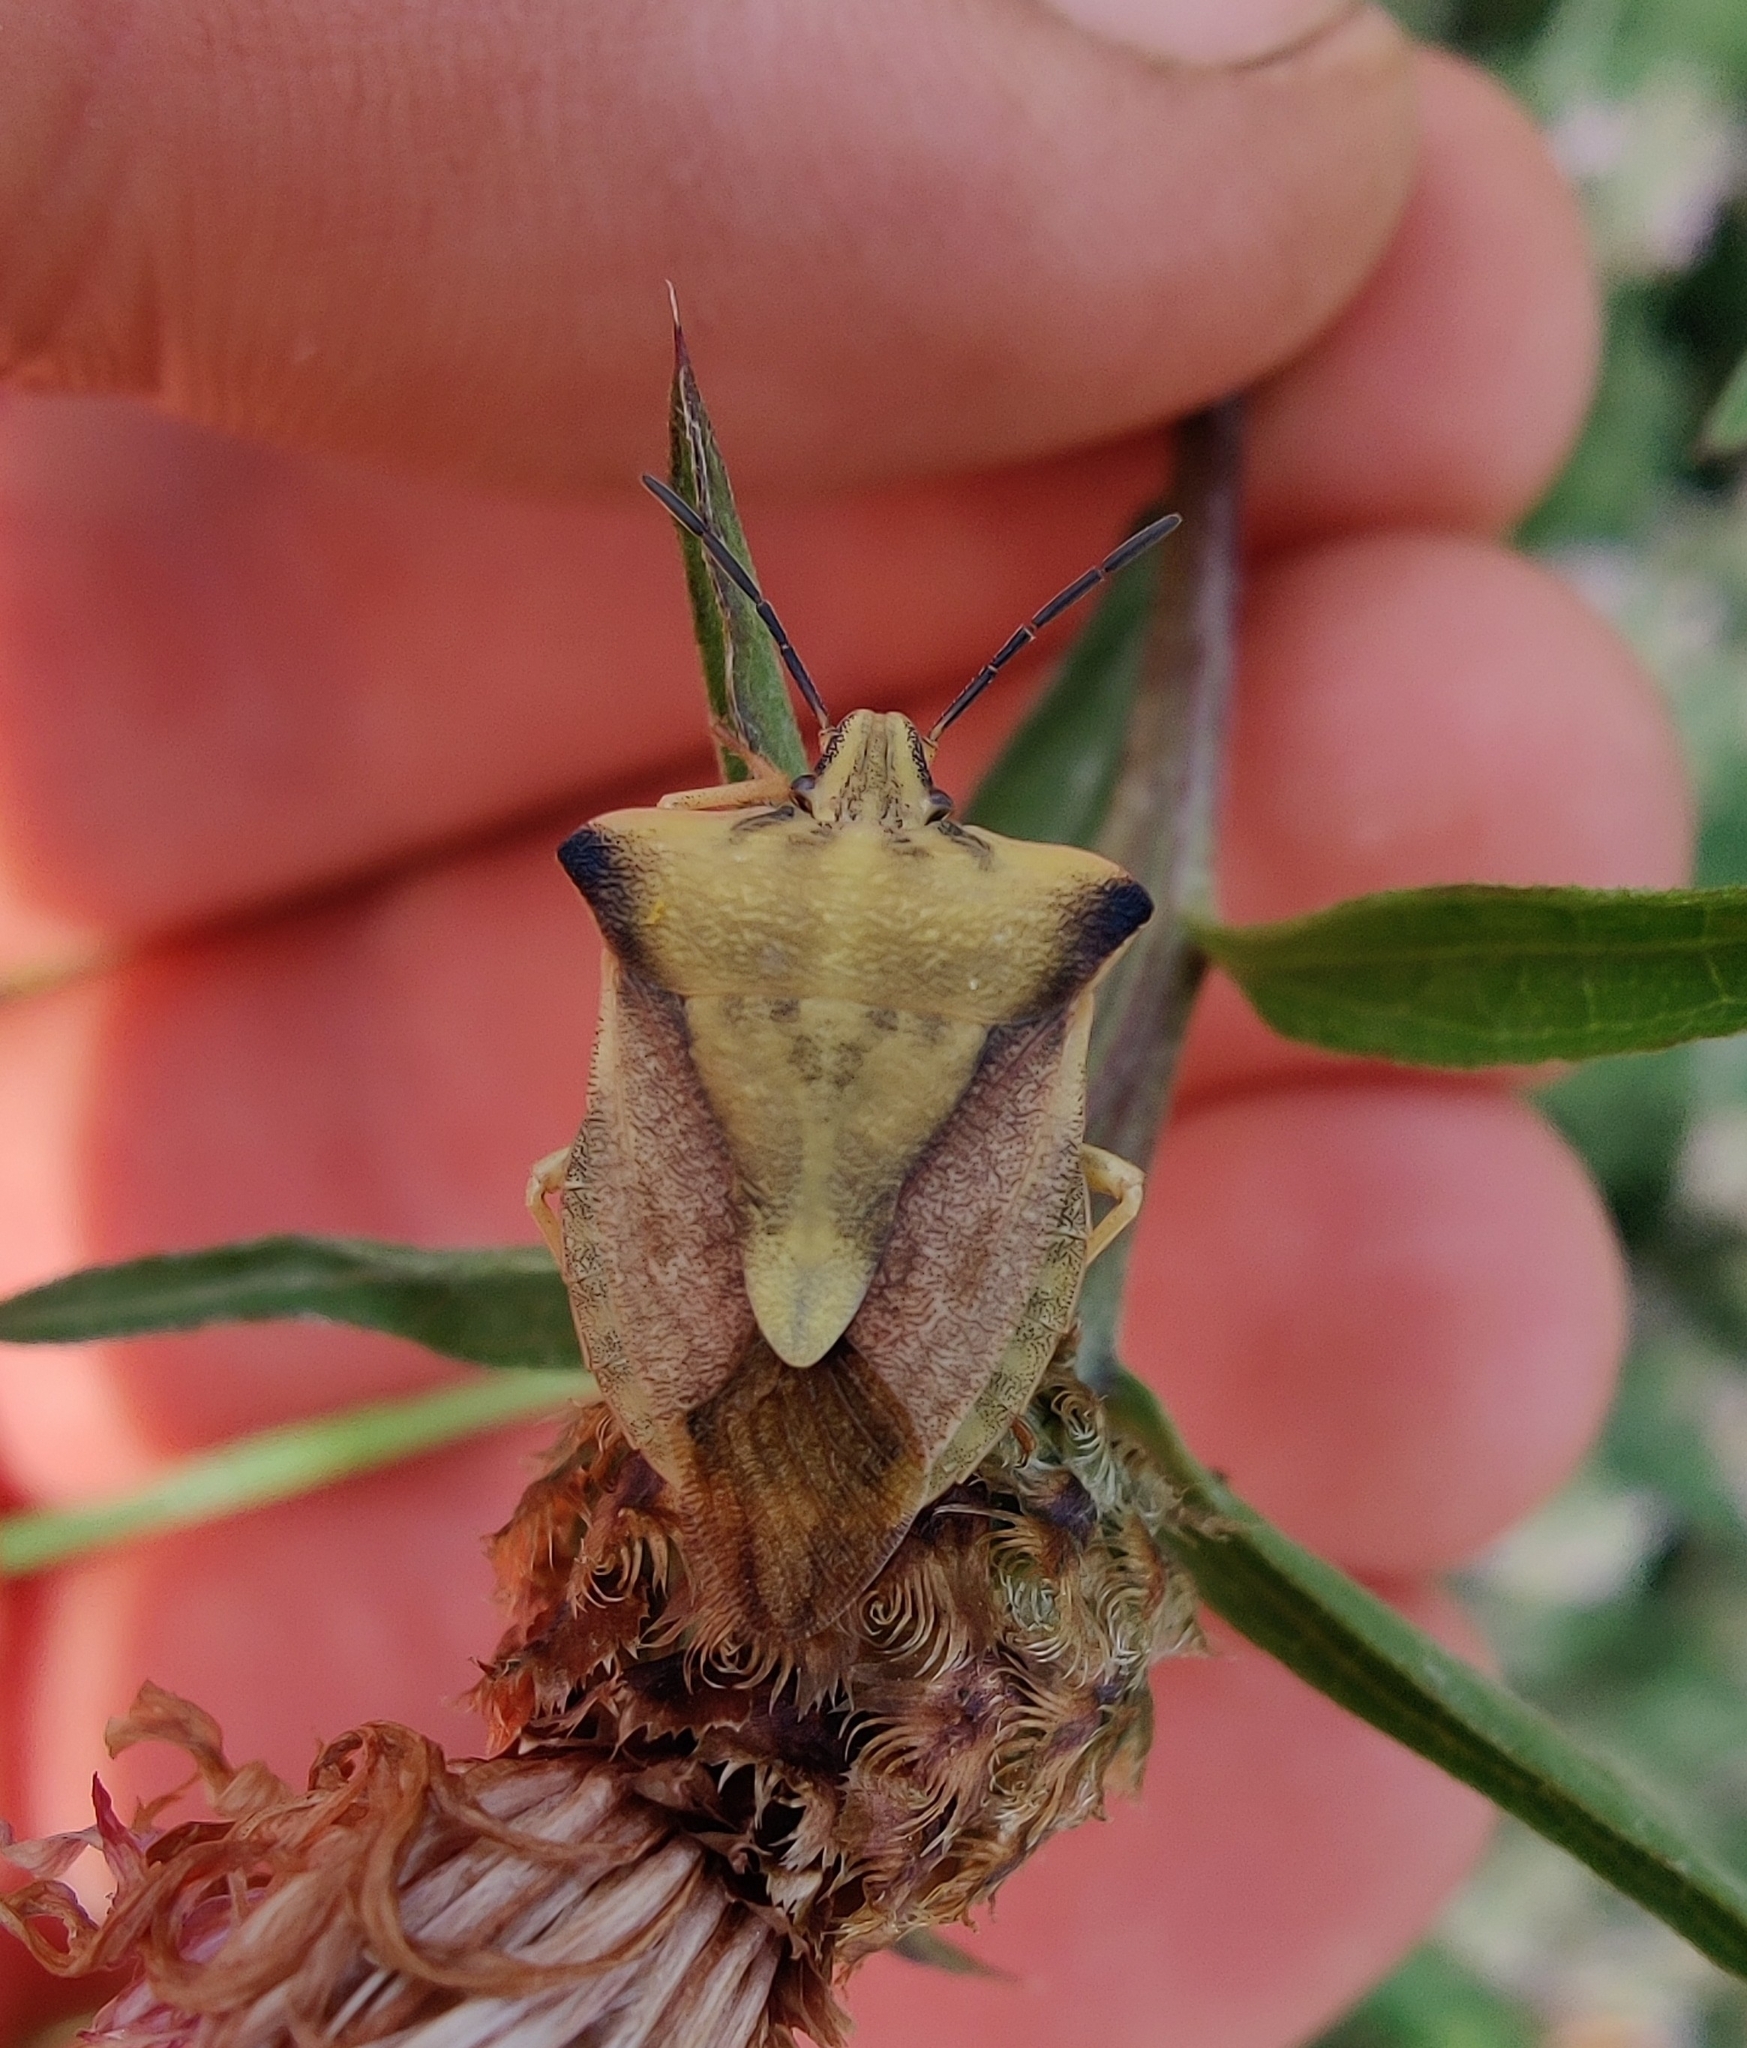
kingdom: Animalia
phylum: Arthropoda
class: Insecta
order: Hemiptera
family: Pentatomidae
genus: Carpocoris
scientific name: Carpocoris fuscispinus
